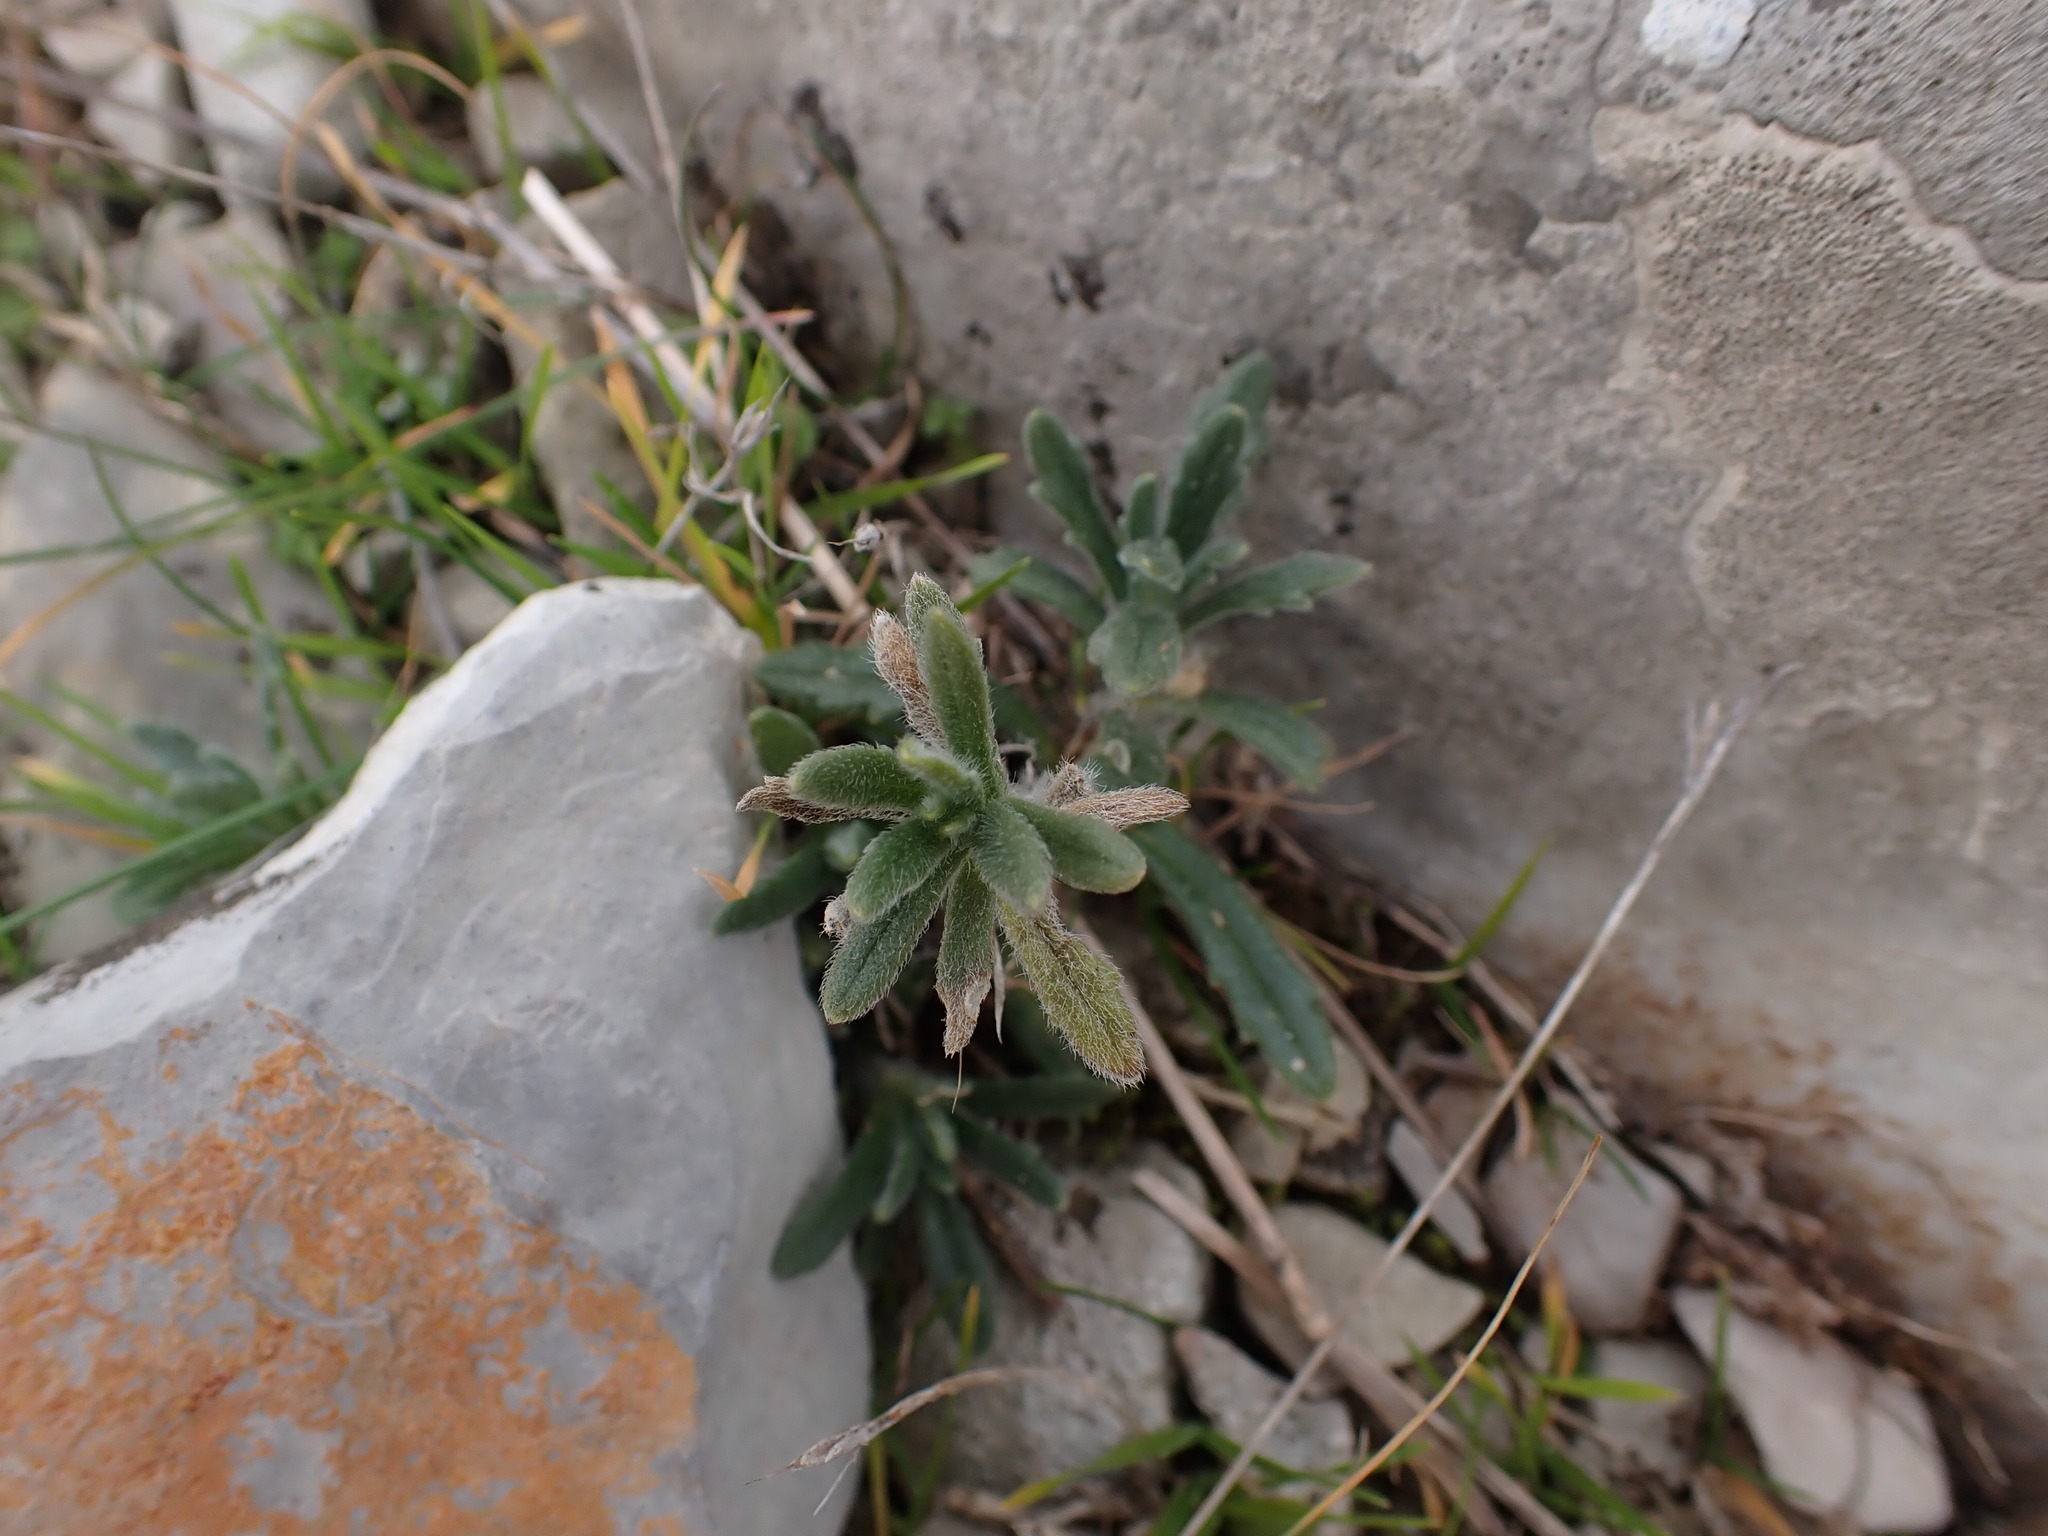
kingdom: Plantae
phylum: Tracheophyta
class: Magnoliopsida
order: Lamiales
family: Lamiaceae
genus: Ajuga
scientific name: Ajuga iva
